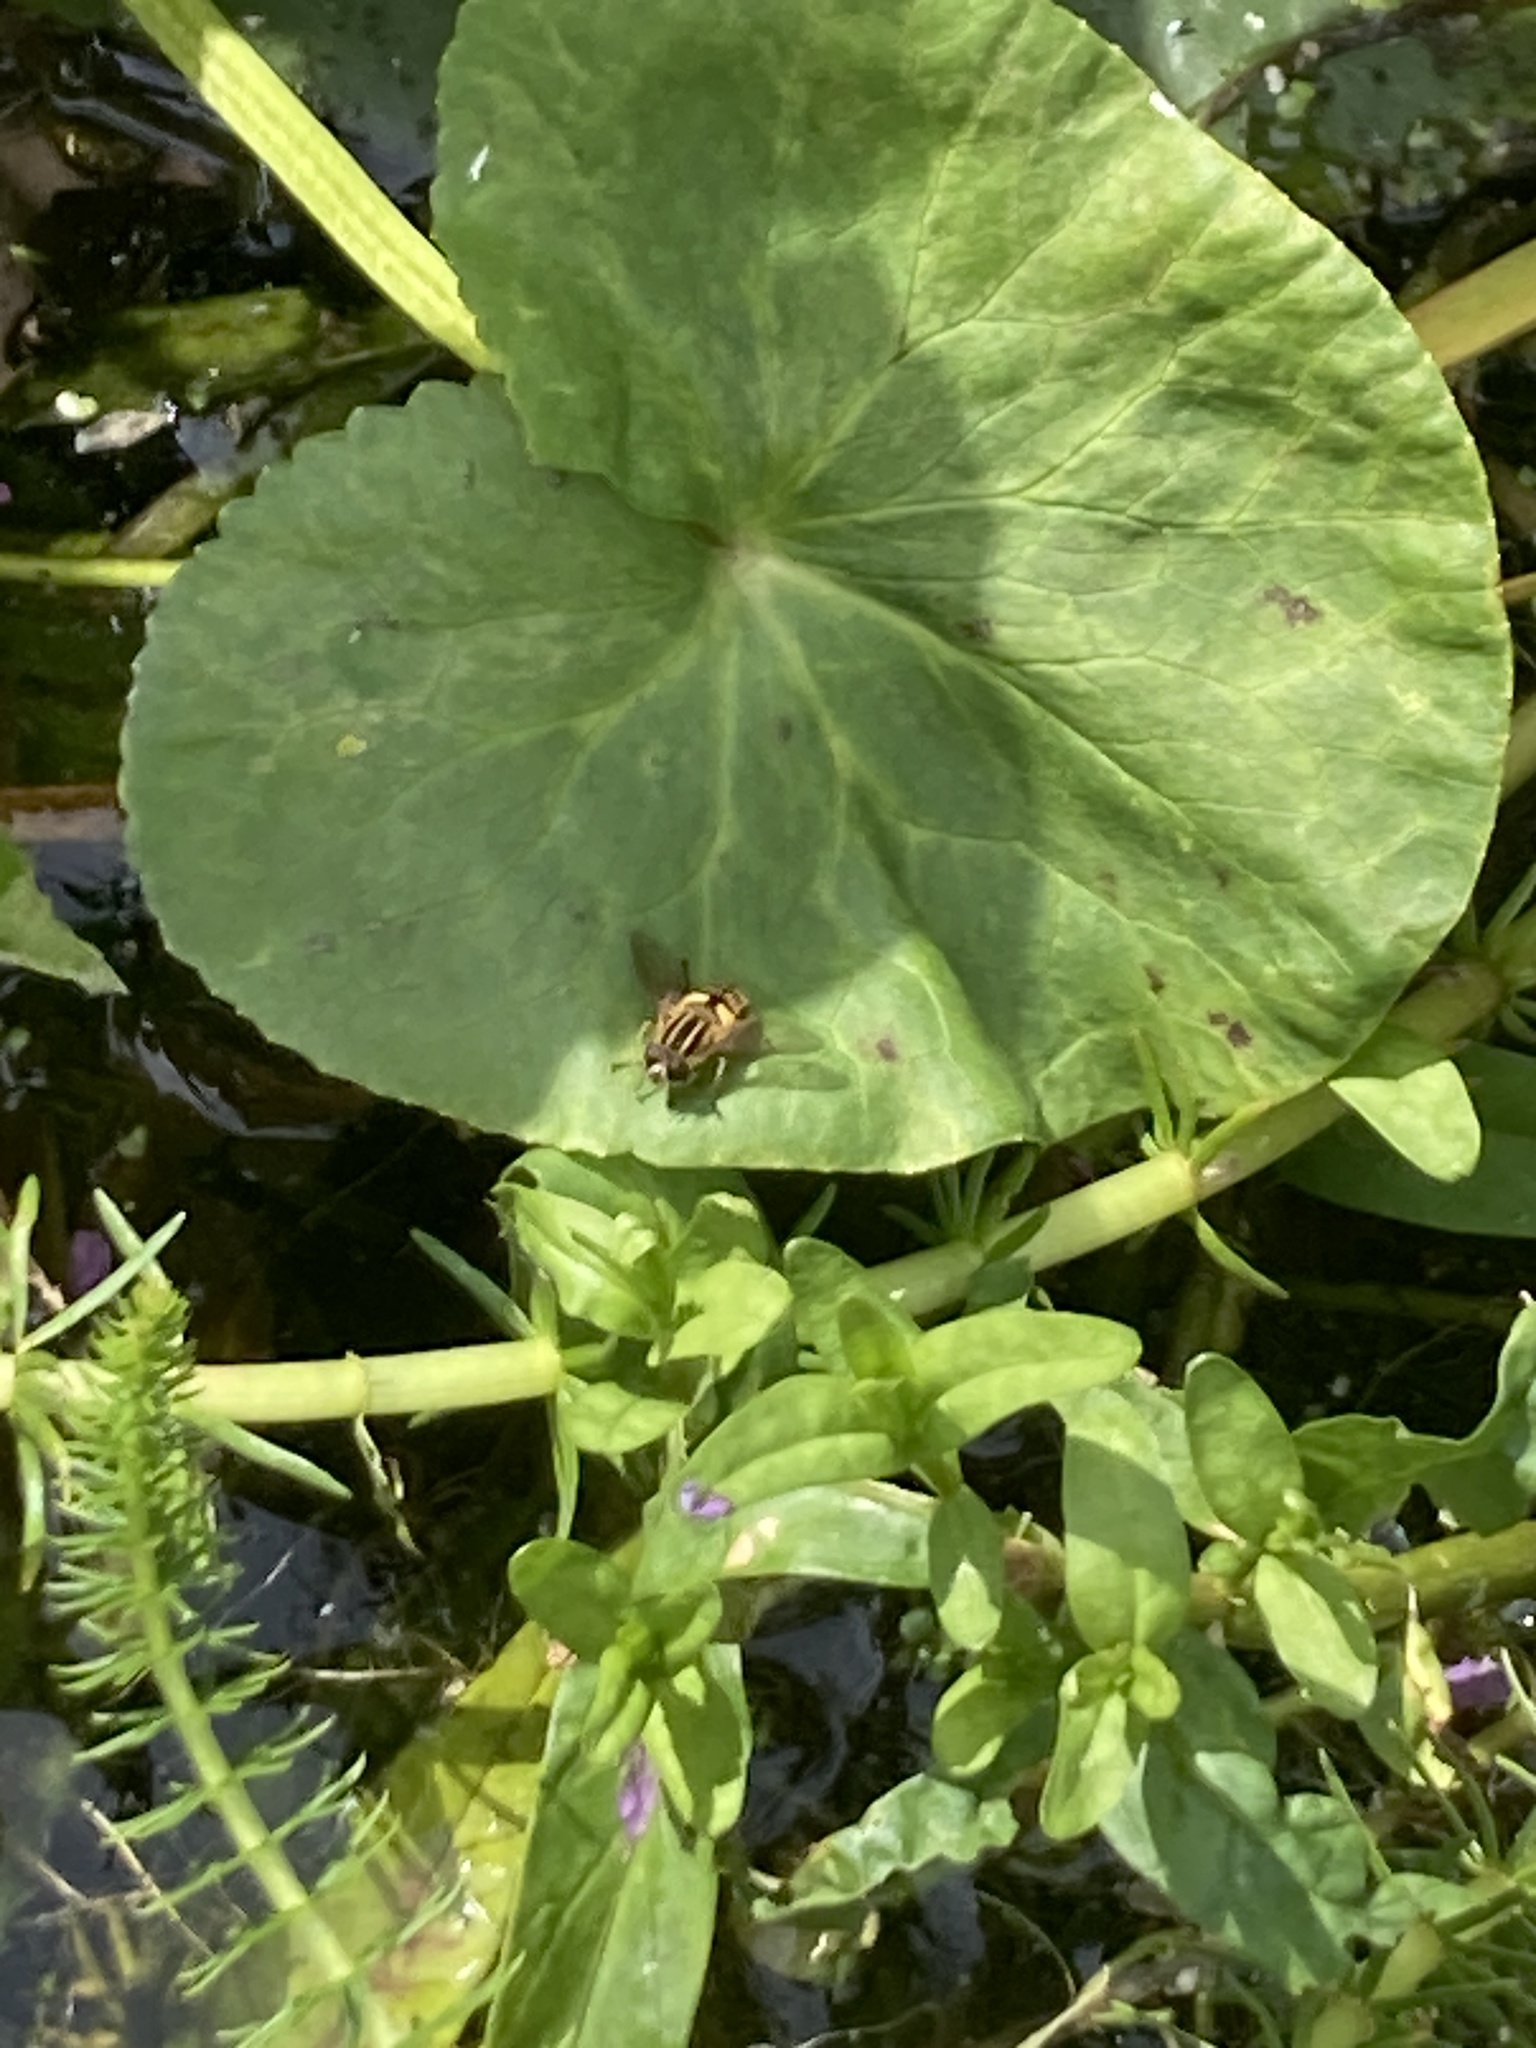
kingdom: Animalia
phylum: Arthropoda
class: Insecta
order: Diptera
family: Syrphidae
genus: Helophilus
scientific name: Helophilus
